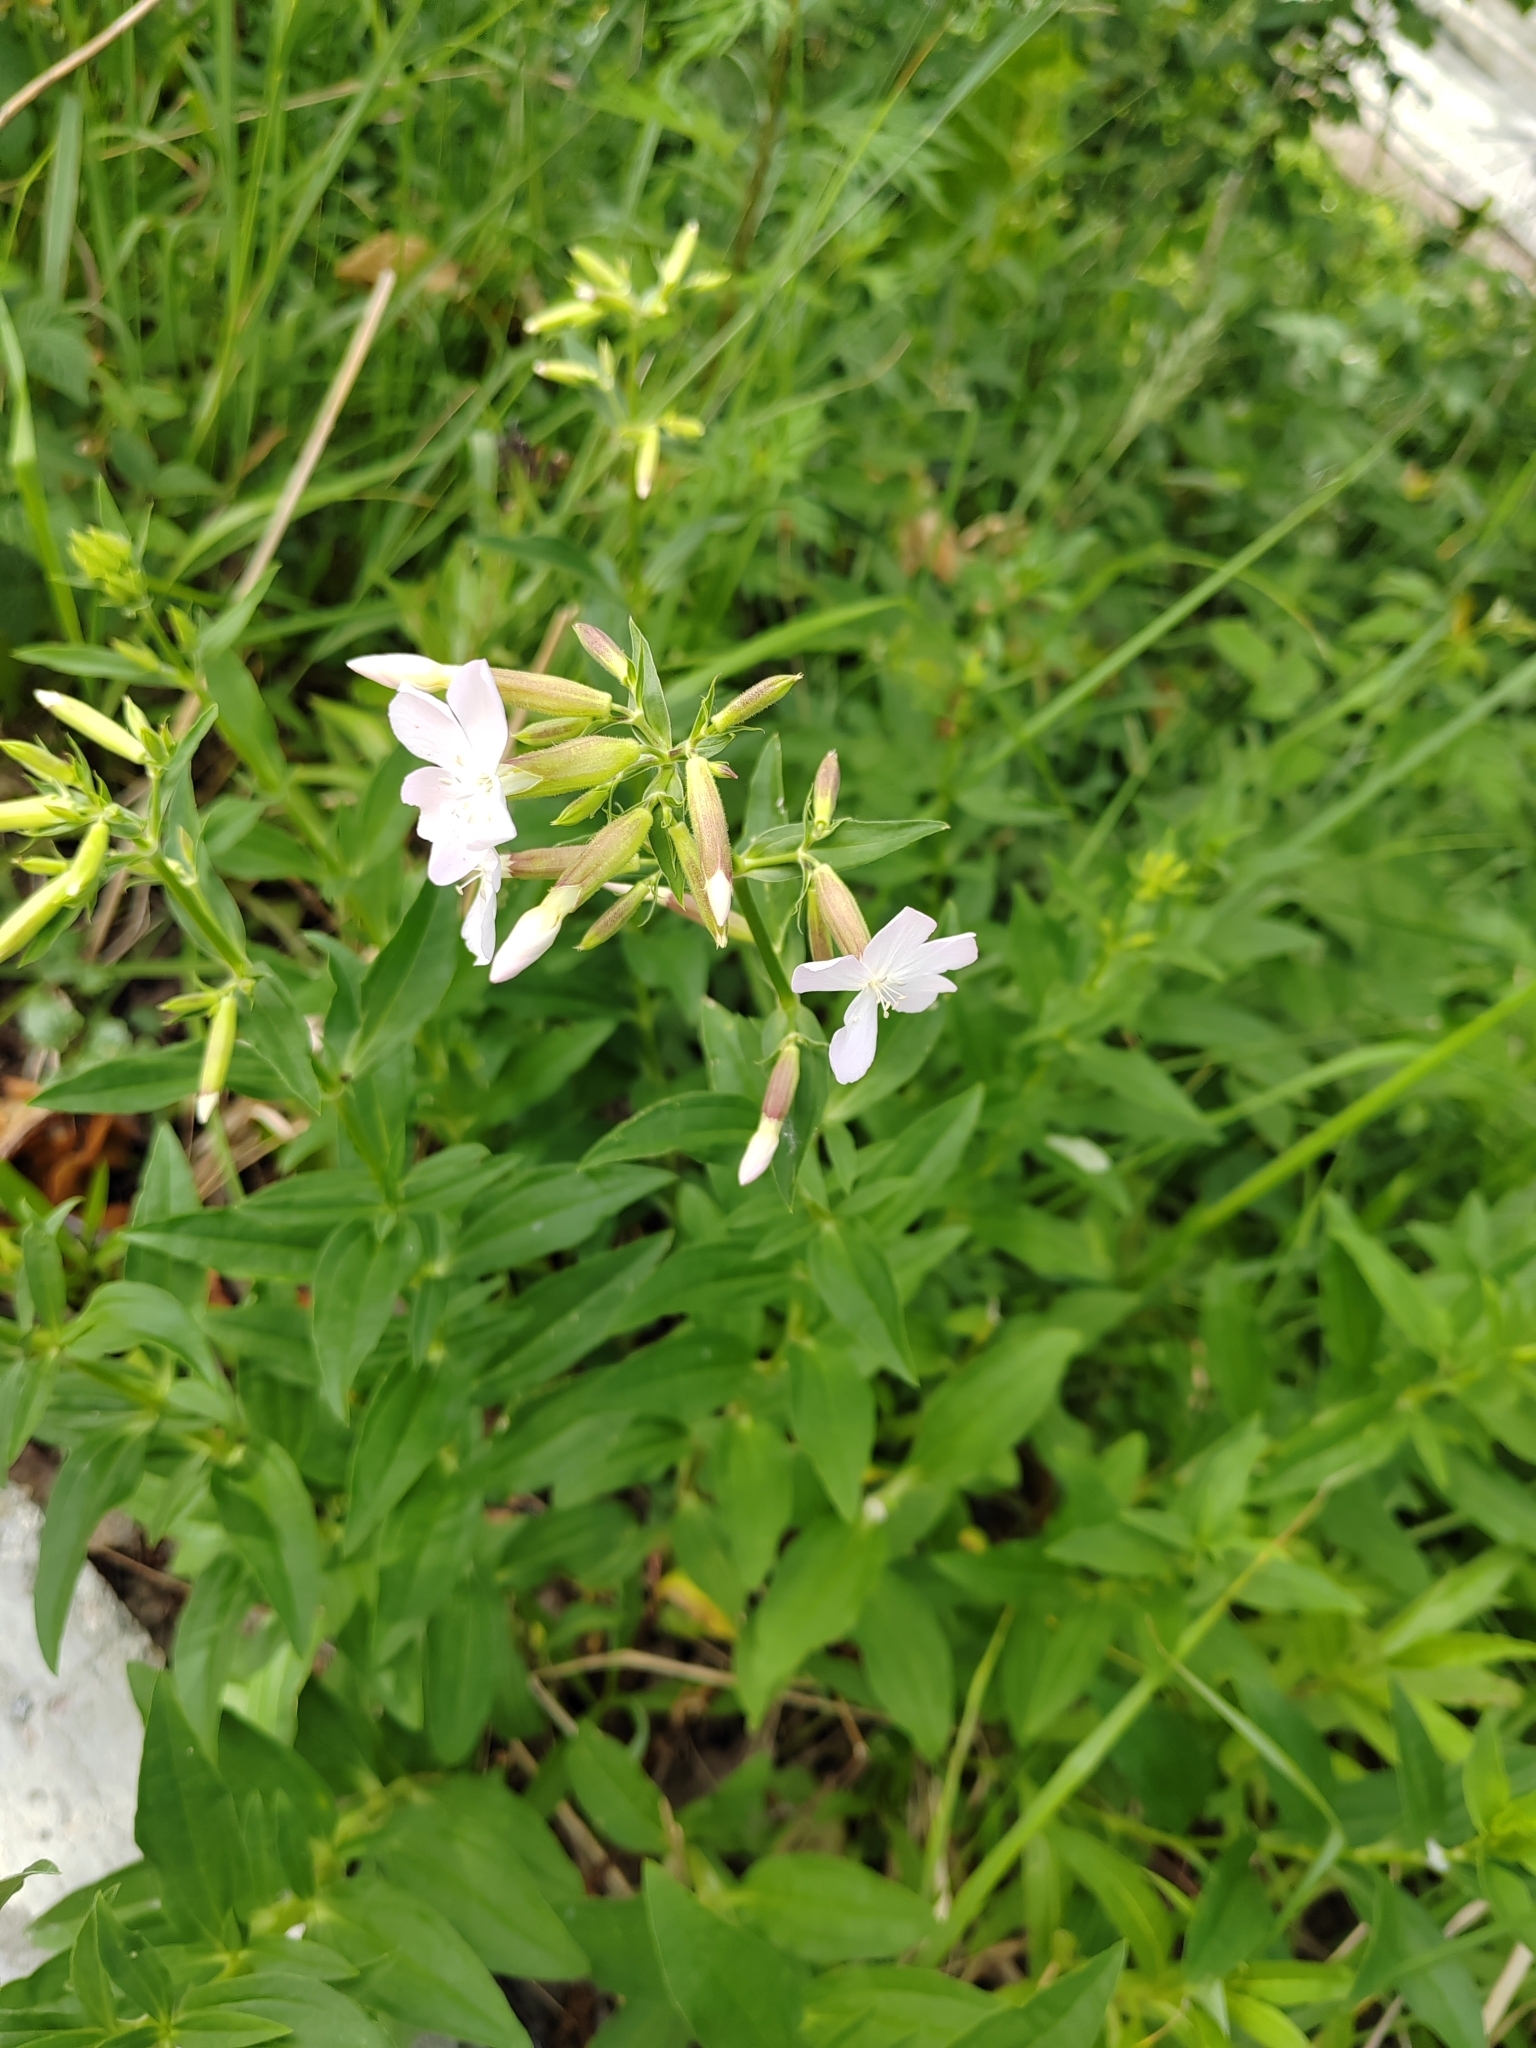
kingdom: Plantae
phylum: Tracheophyta
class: Magnoliopsida
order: Caryophyllales
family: Caryophyllaceae
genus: Saponaria
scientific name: Saponaria officinalis
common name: Soapwort
